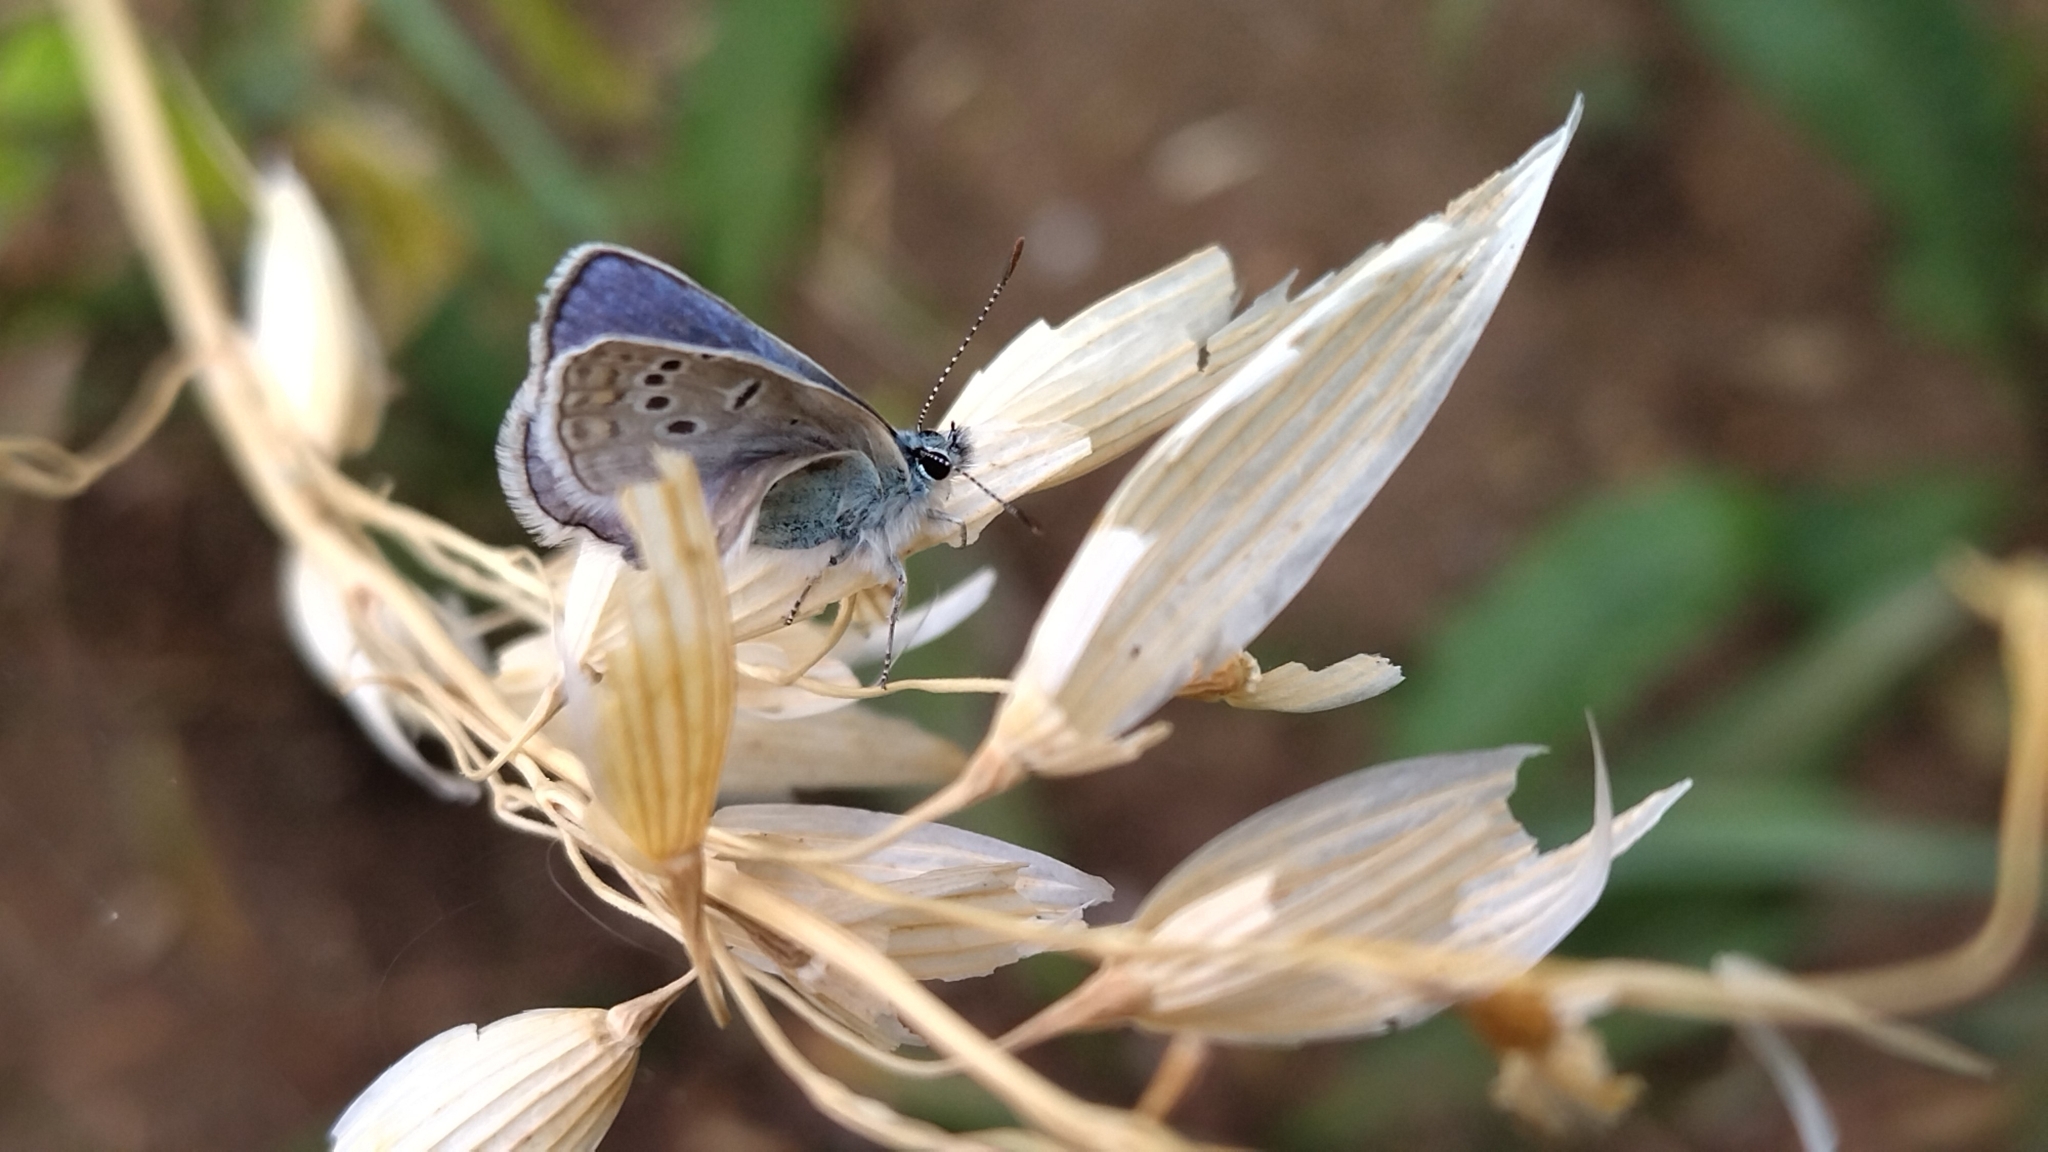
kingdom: Animalia
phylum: Arthropoda
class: Insecta
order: Lepidoptera
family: Lycaenidae
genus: Polyommatus
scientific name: Polyommatus icarus
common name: Common blue
